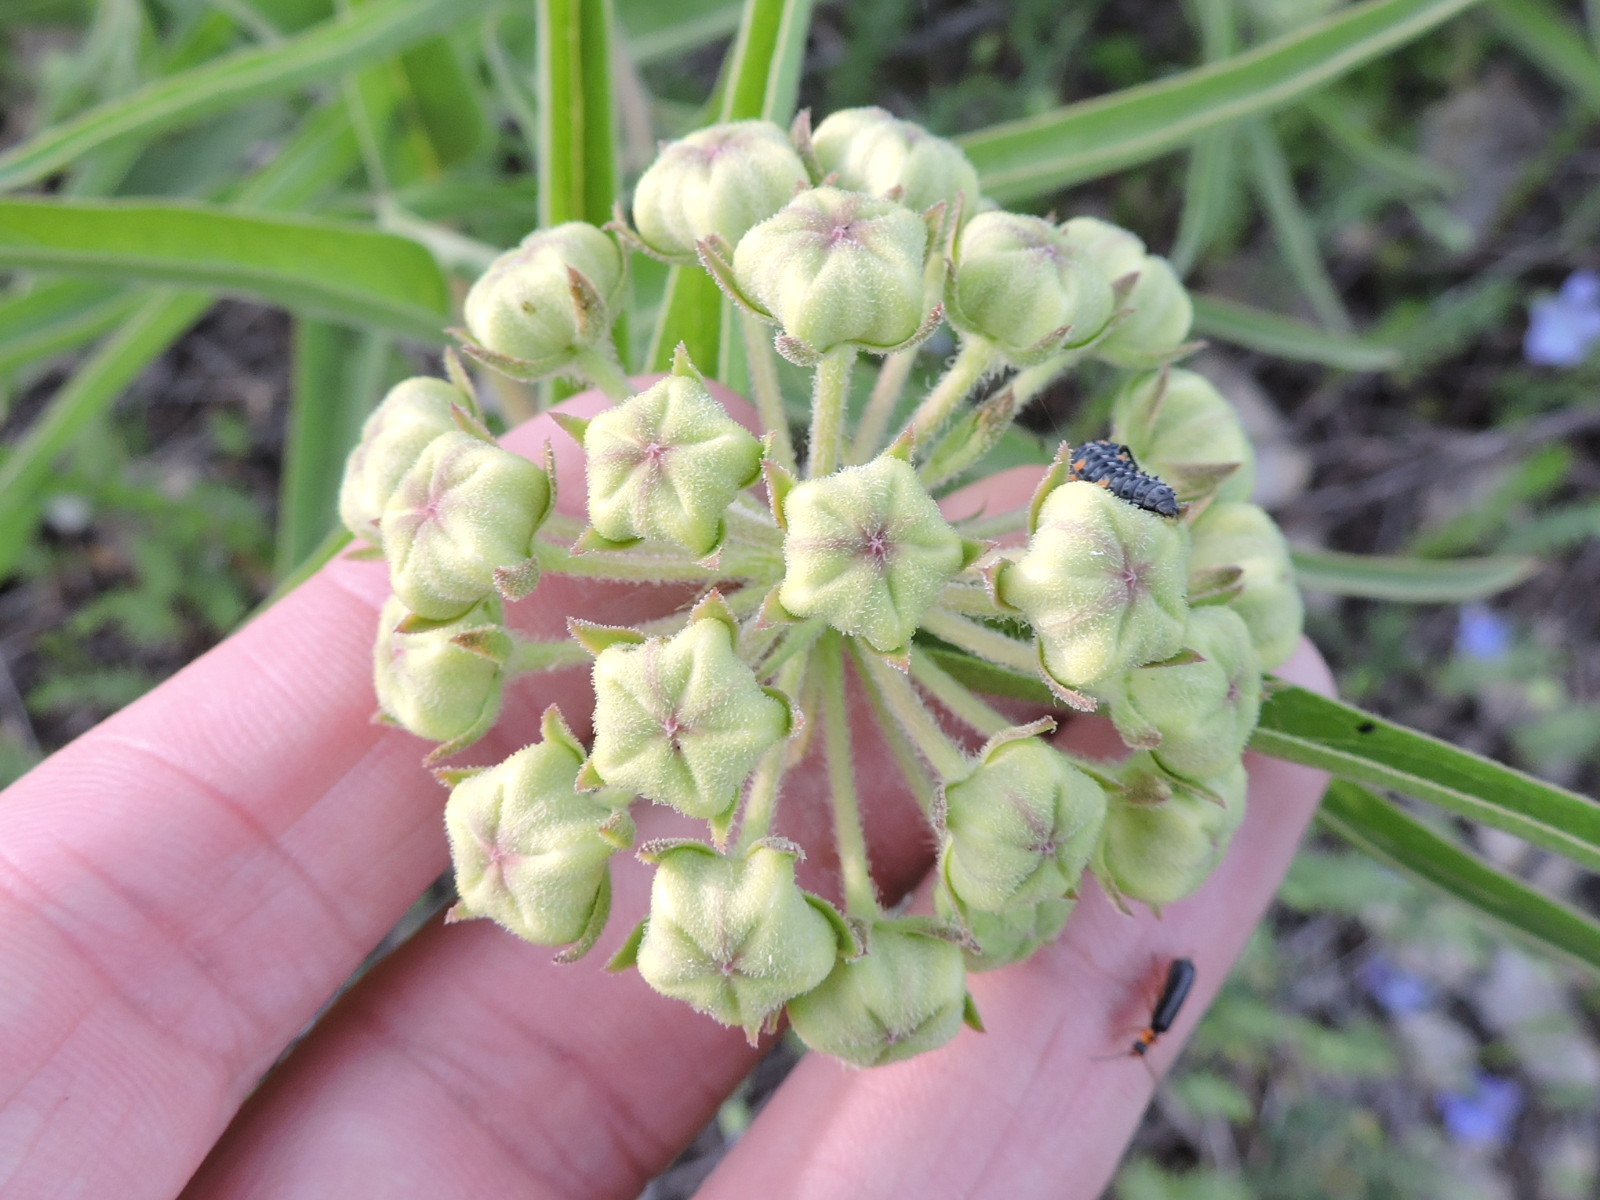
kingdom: Plantae
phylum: Tracheophyta
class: Magnoliopsida
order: Gentianales
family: Apocynaceae
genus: Asclepias
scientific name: Asclepias asperula
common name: Antelope horns
